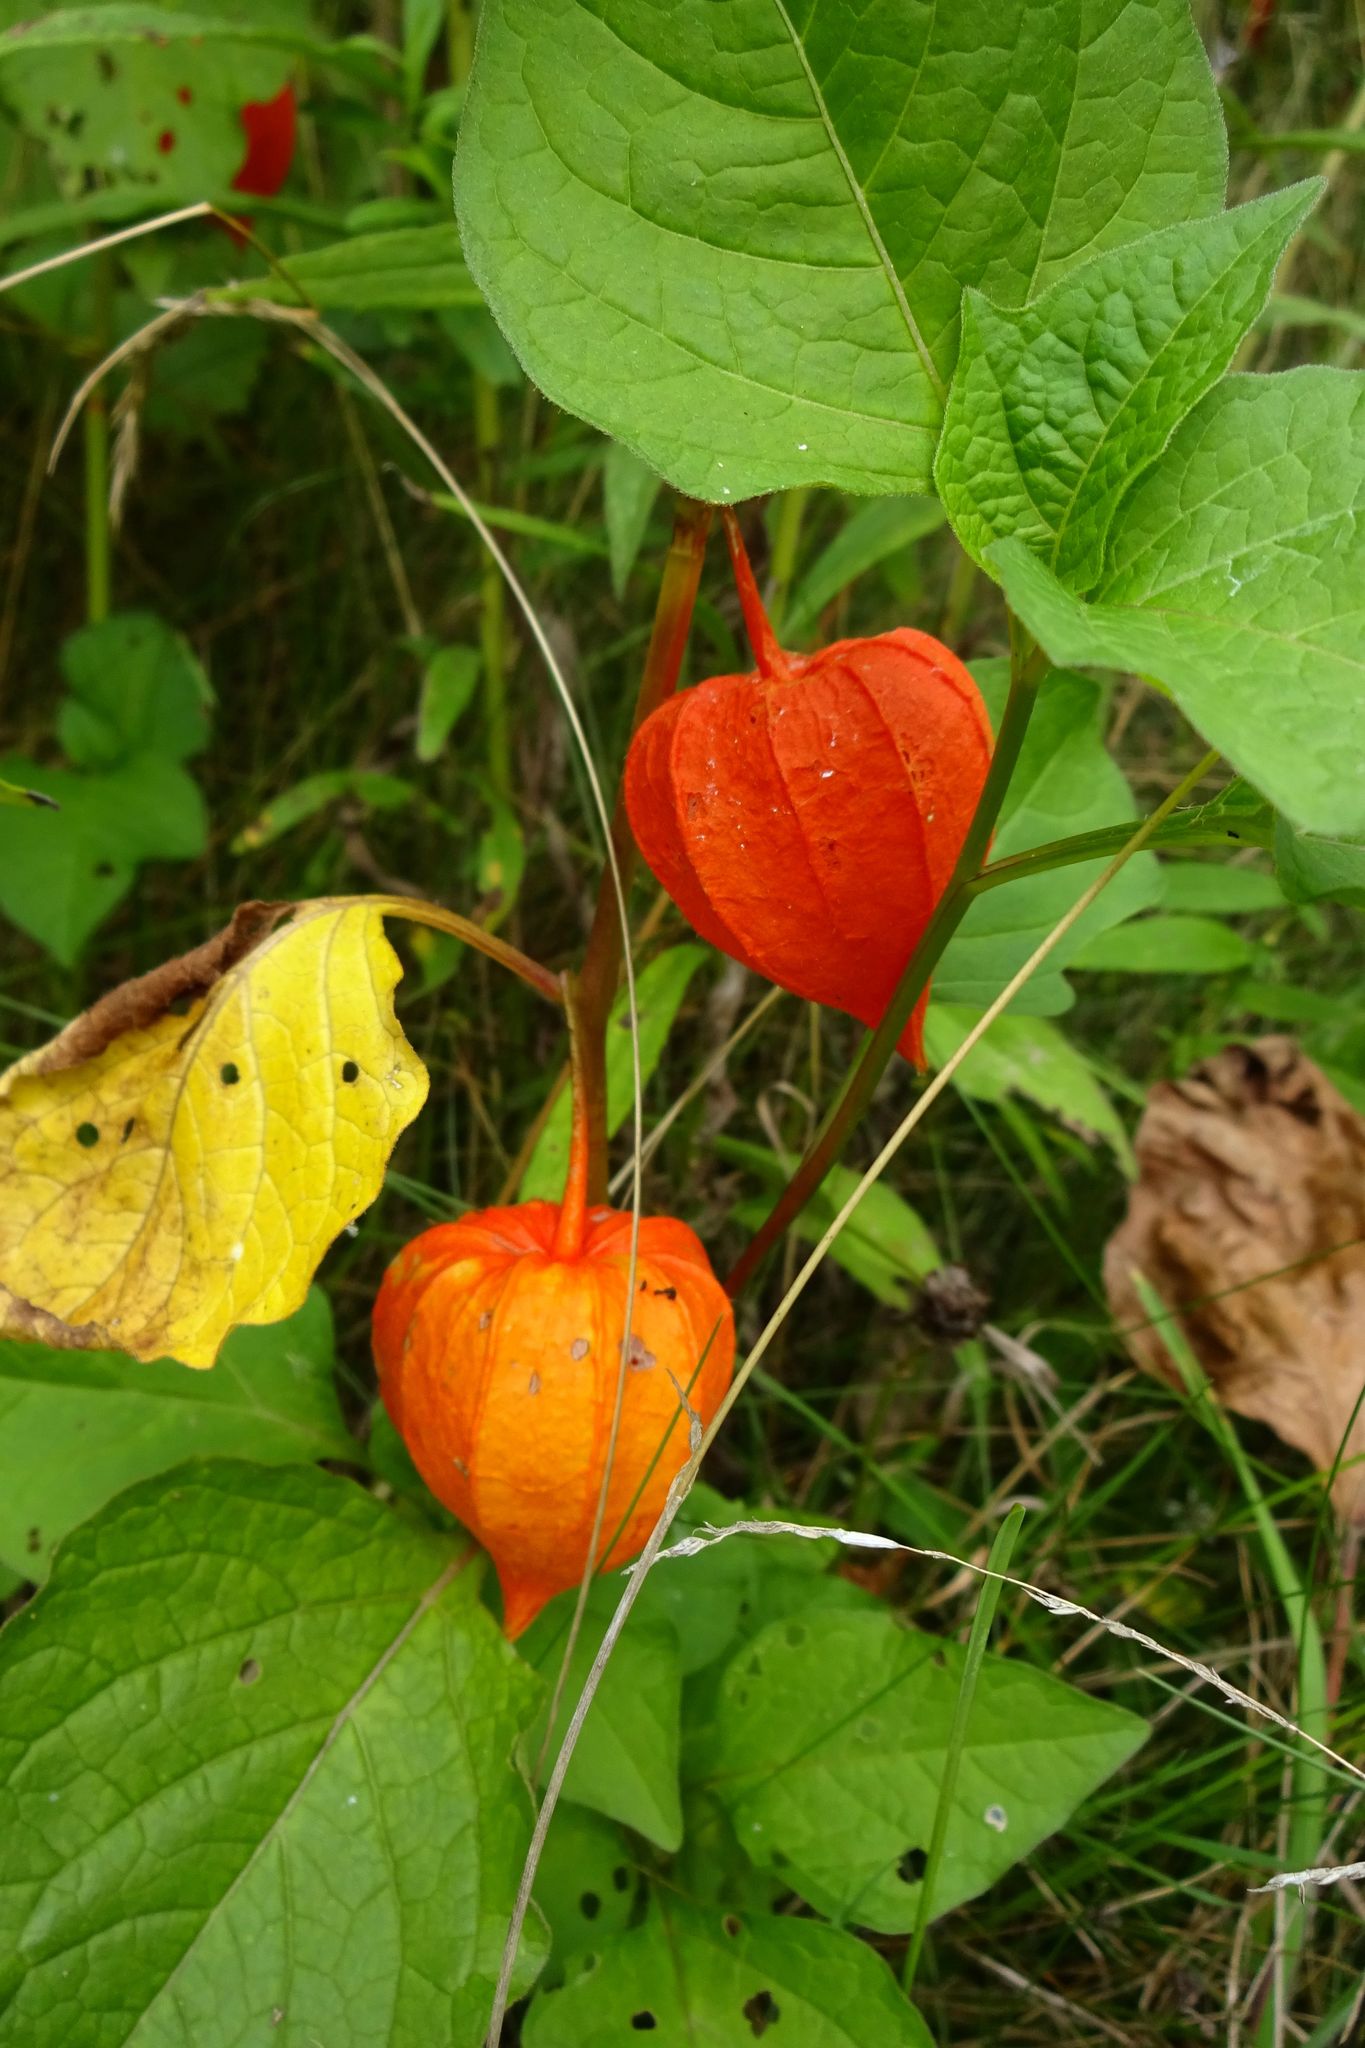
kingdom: Plantae
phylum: Tracheophyta
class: Magnoliopsida
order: Solanales
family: Solanaceae
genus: Alkekengi
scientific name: Alkekengi officinarum
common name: Japanese-lantern
